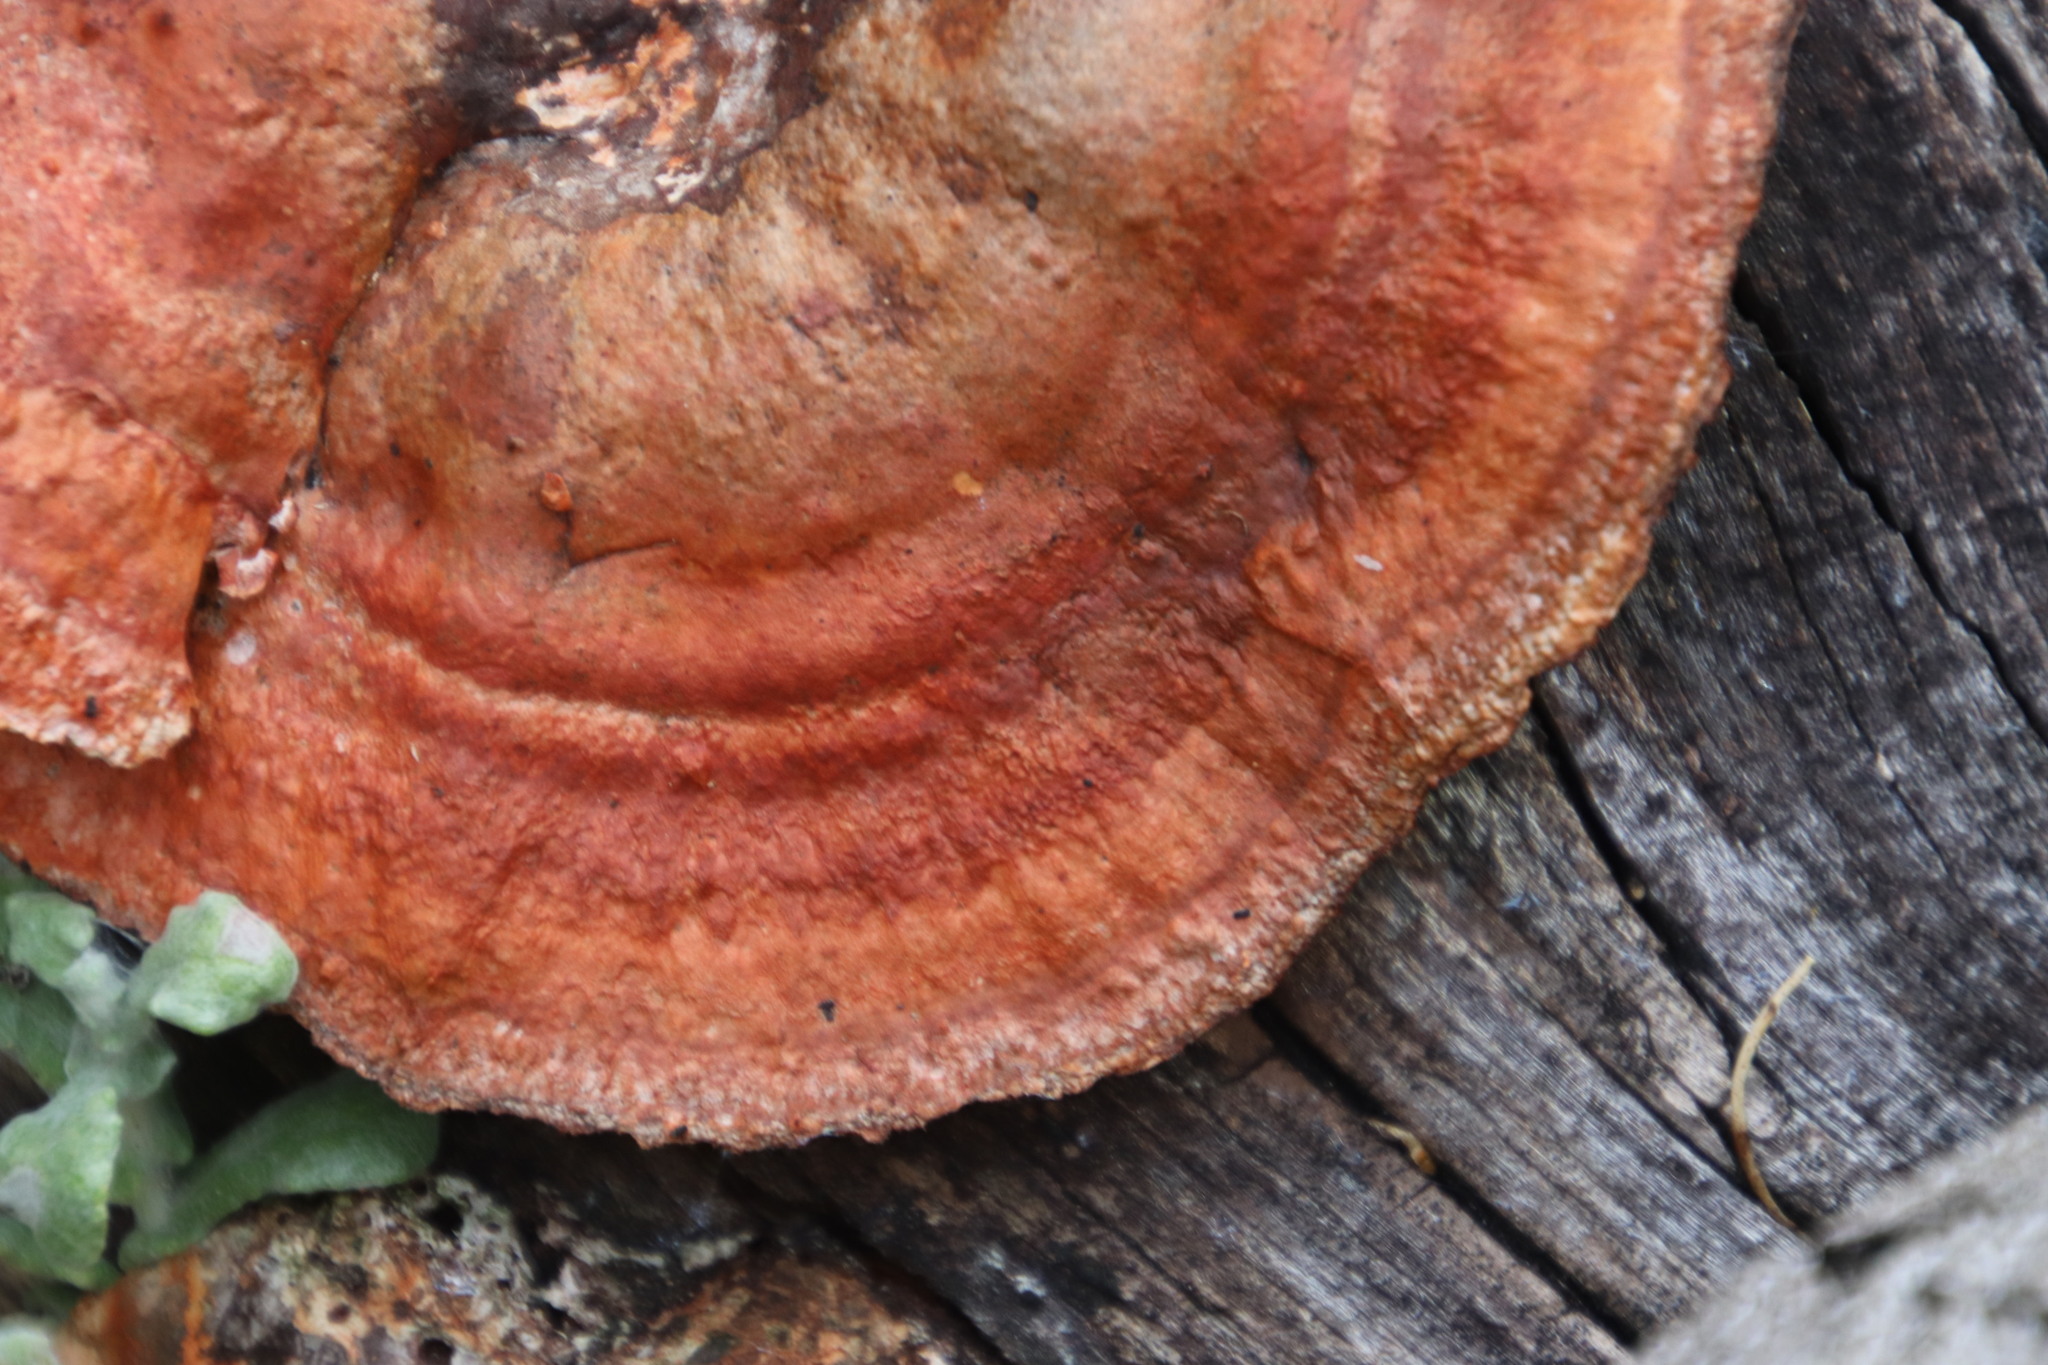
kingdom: Fungi
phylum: Basidiomycota
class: Agaricomycetes
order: Polyporales
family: Polyporaceae
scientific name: Polyporaceae
